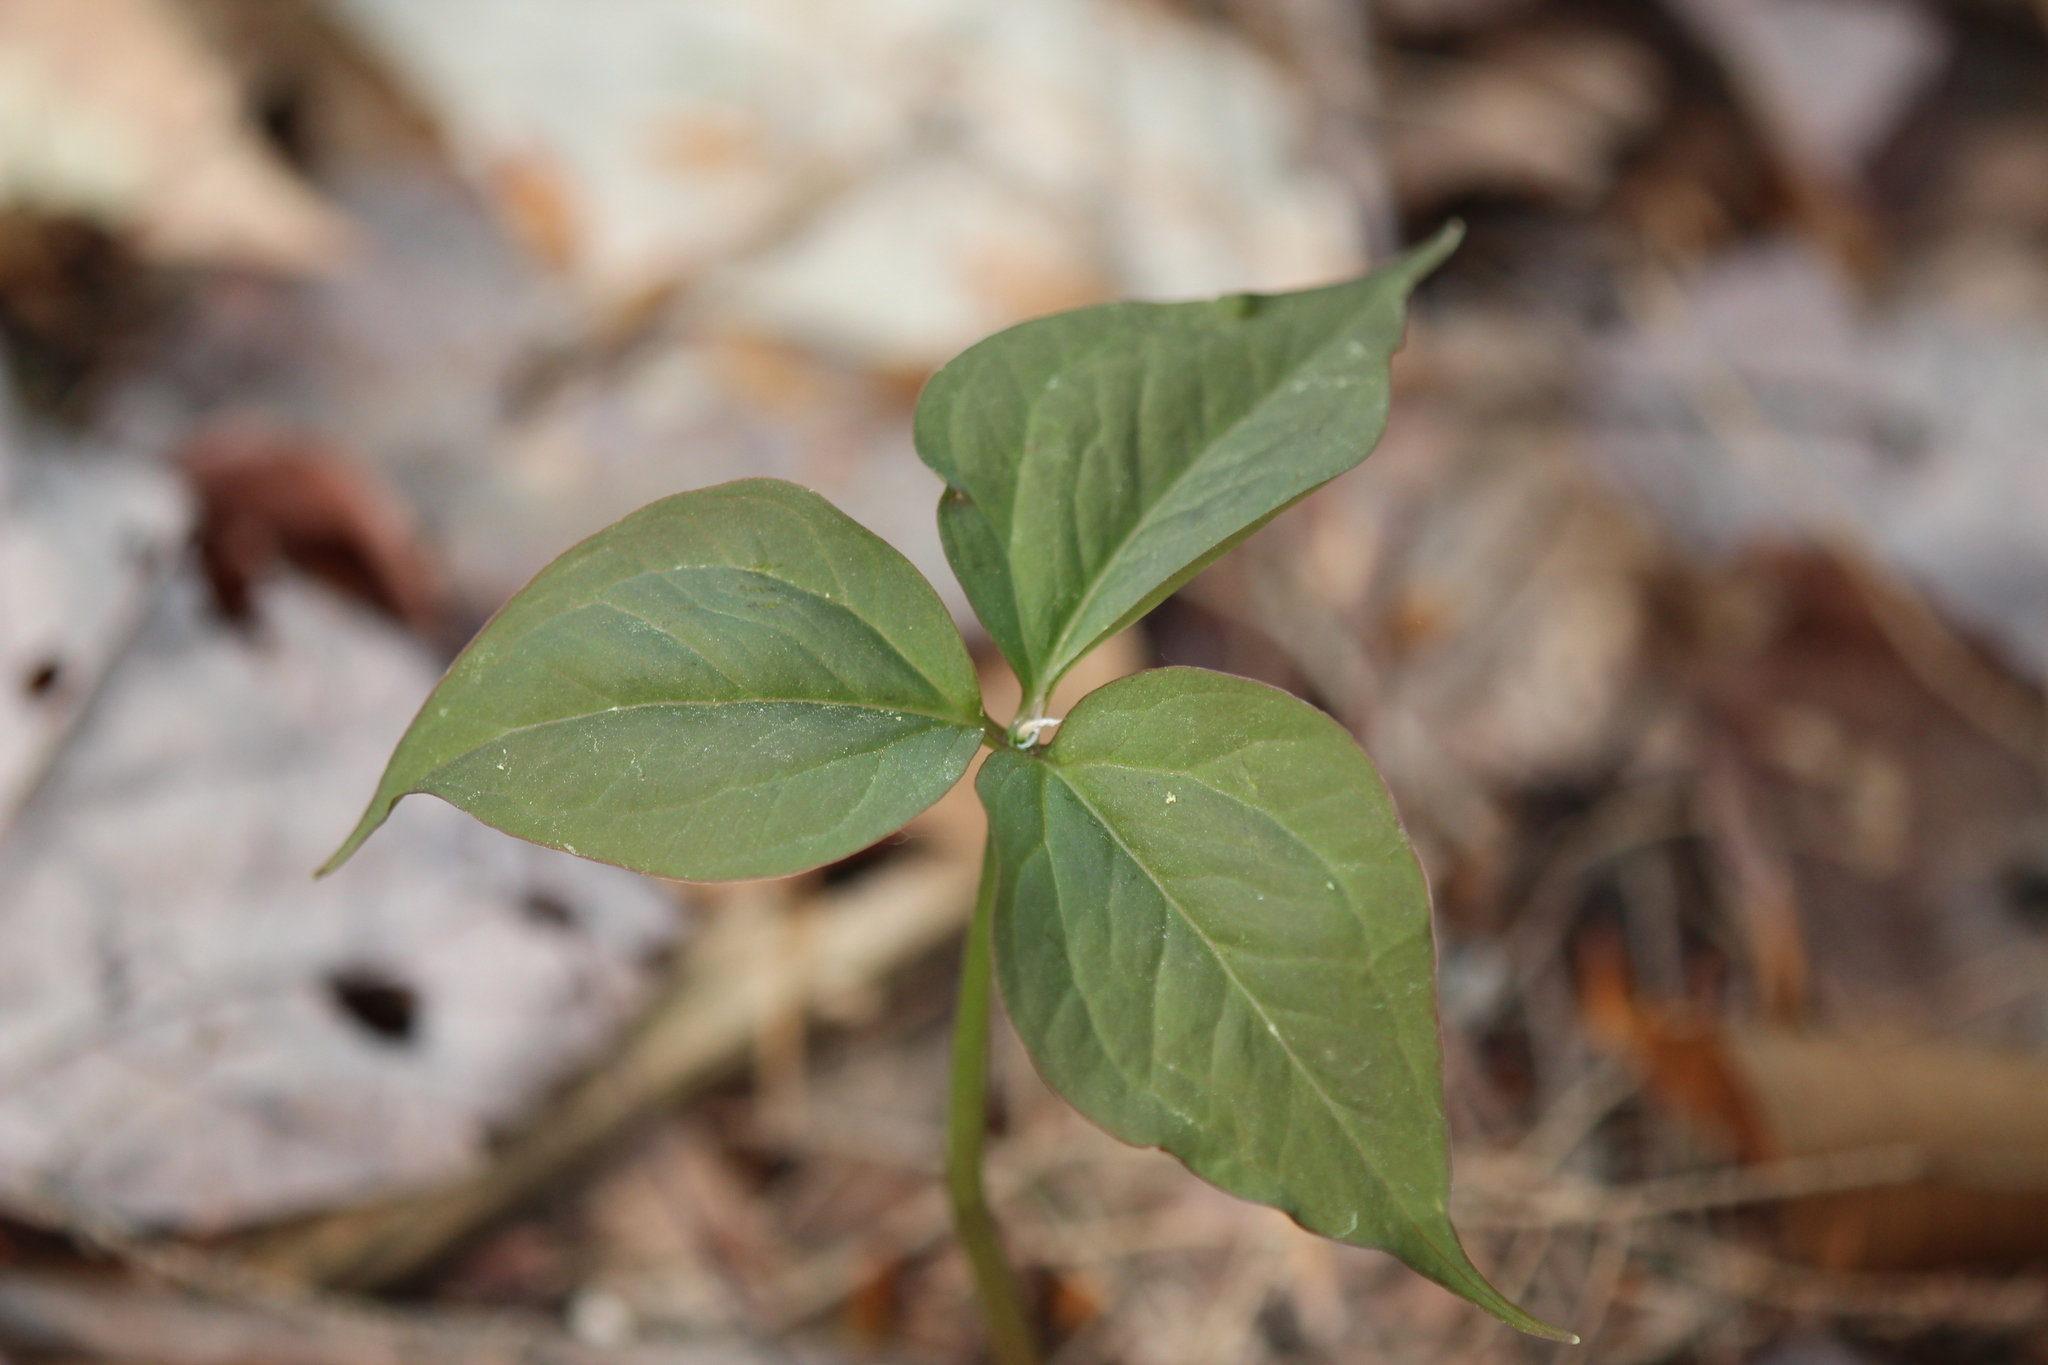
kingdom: Plantae
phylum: Tracheophyta
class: Liliopsida
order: Liliales
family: Melanthiaceae
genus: Trillium
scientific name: Trillium undulatum
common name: Paint trillium
